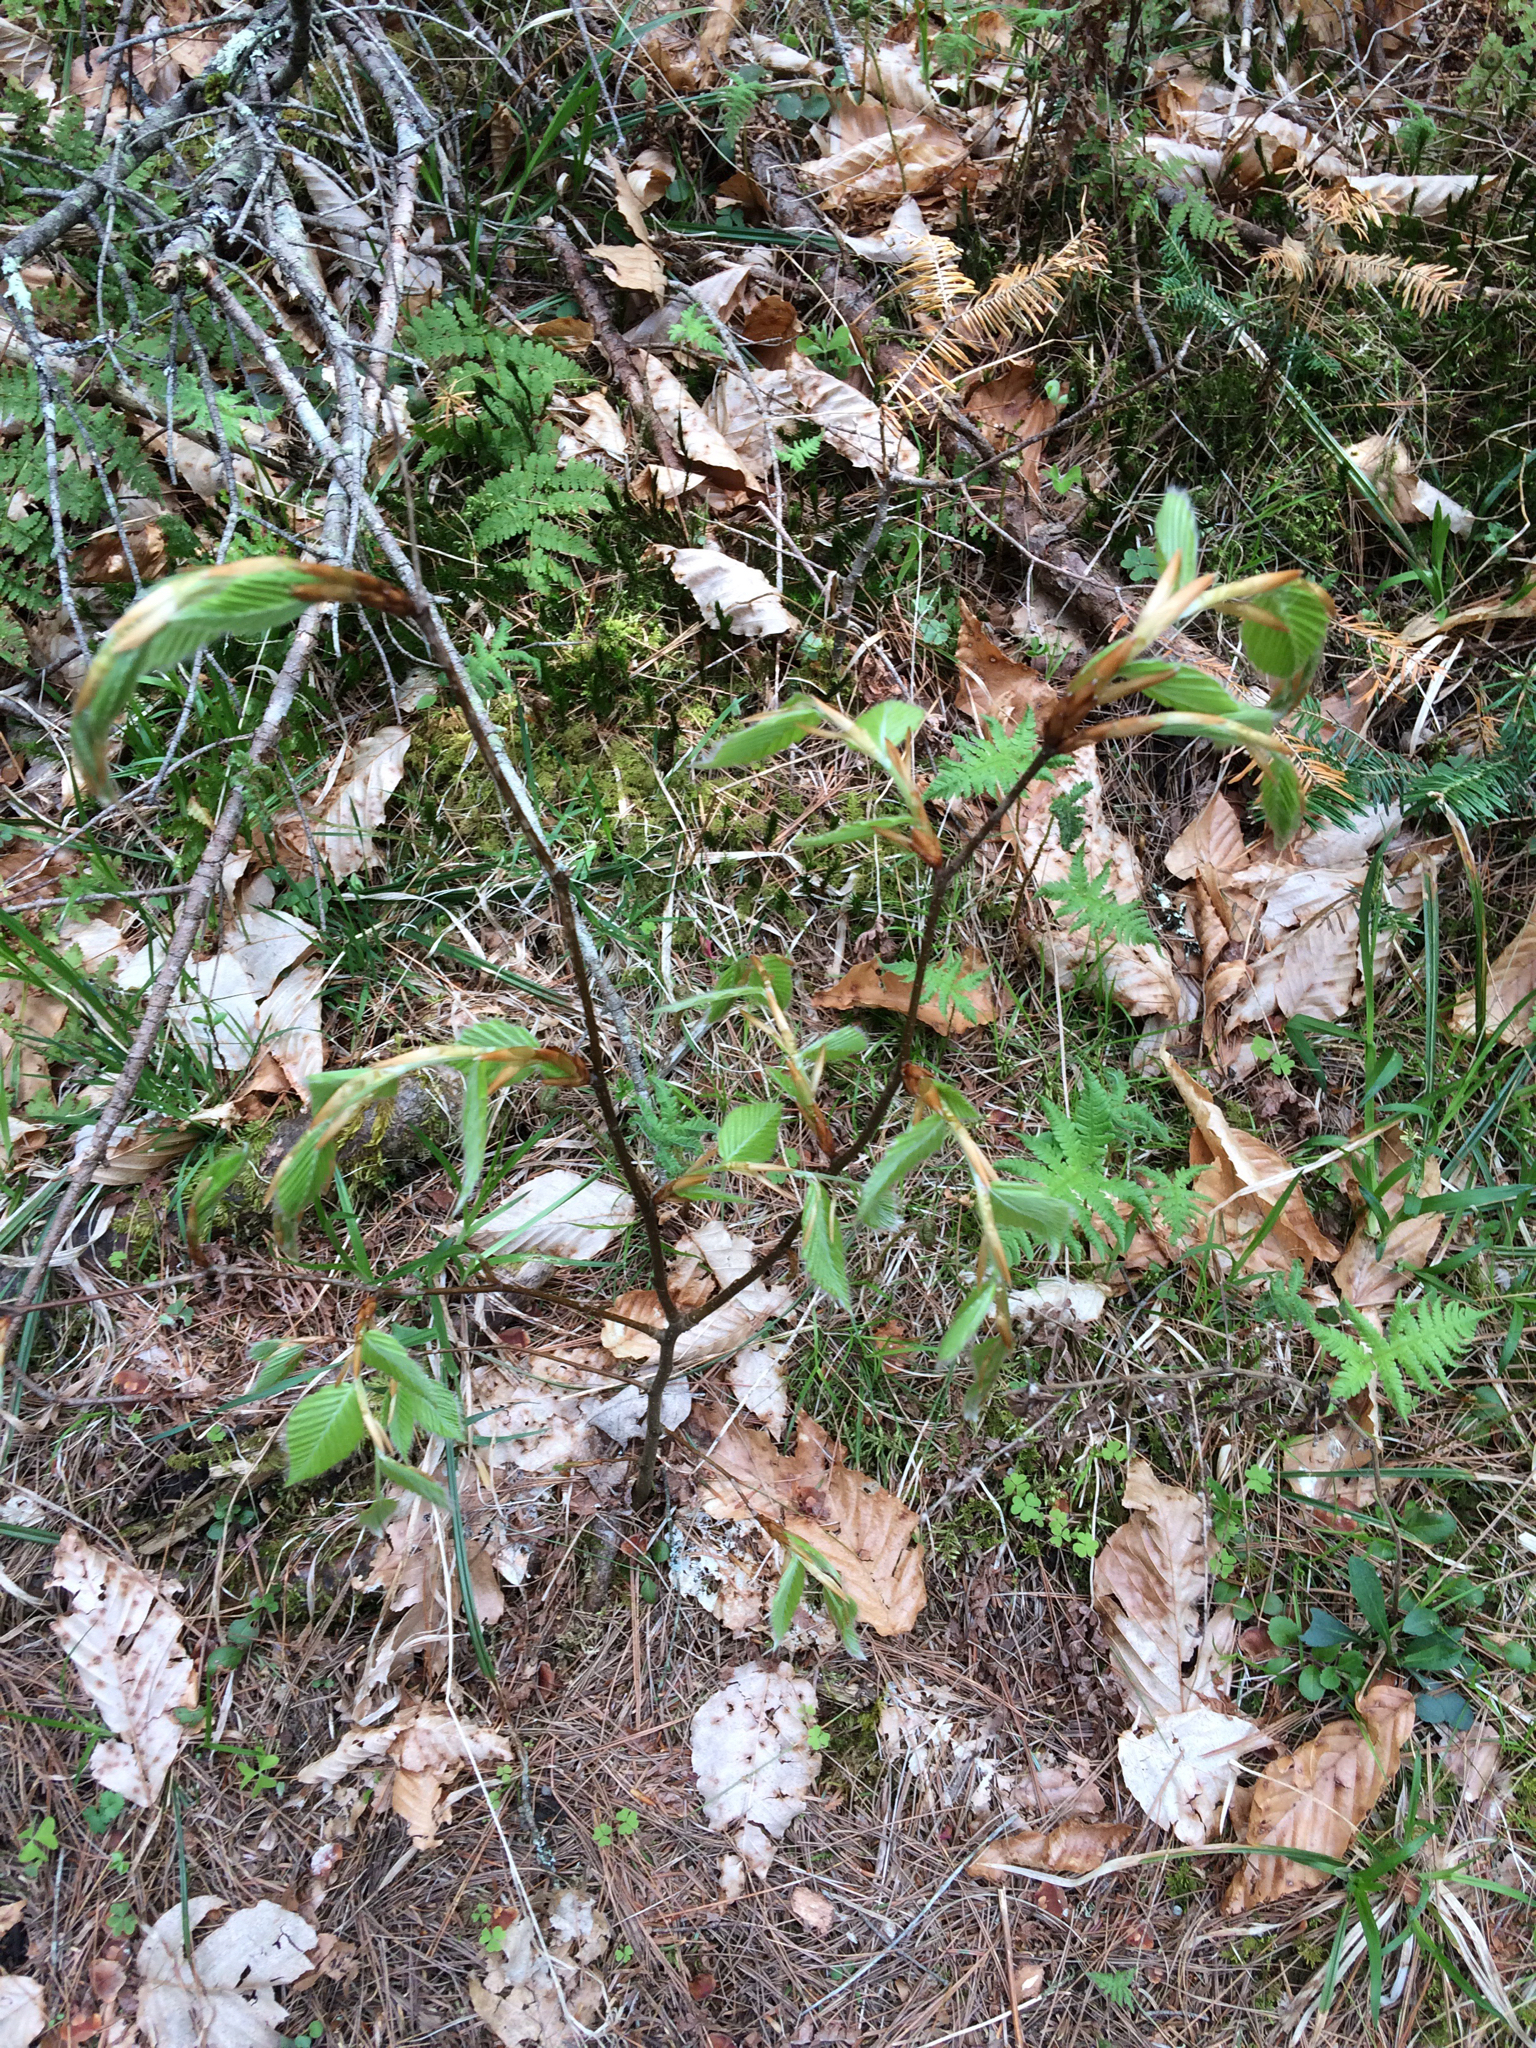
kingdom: Plantae
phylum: Tracheophyta
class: Magnoliopsida
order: Fagales
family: Fagaceae
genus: Fagus
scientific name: Fagus grandifolia
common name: American beech
